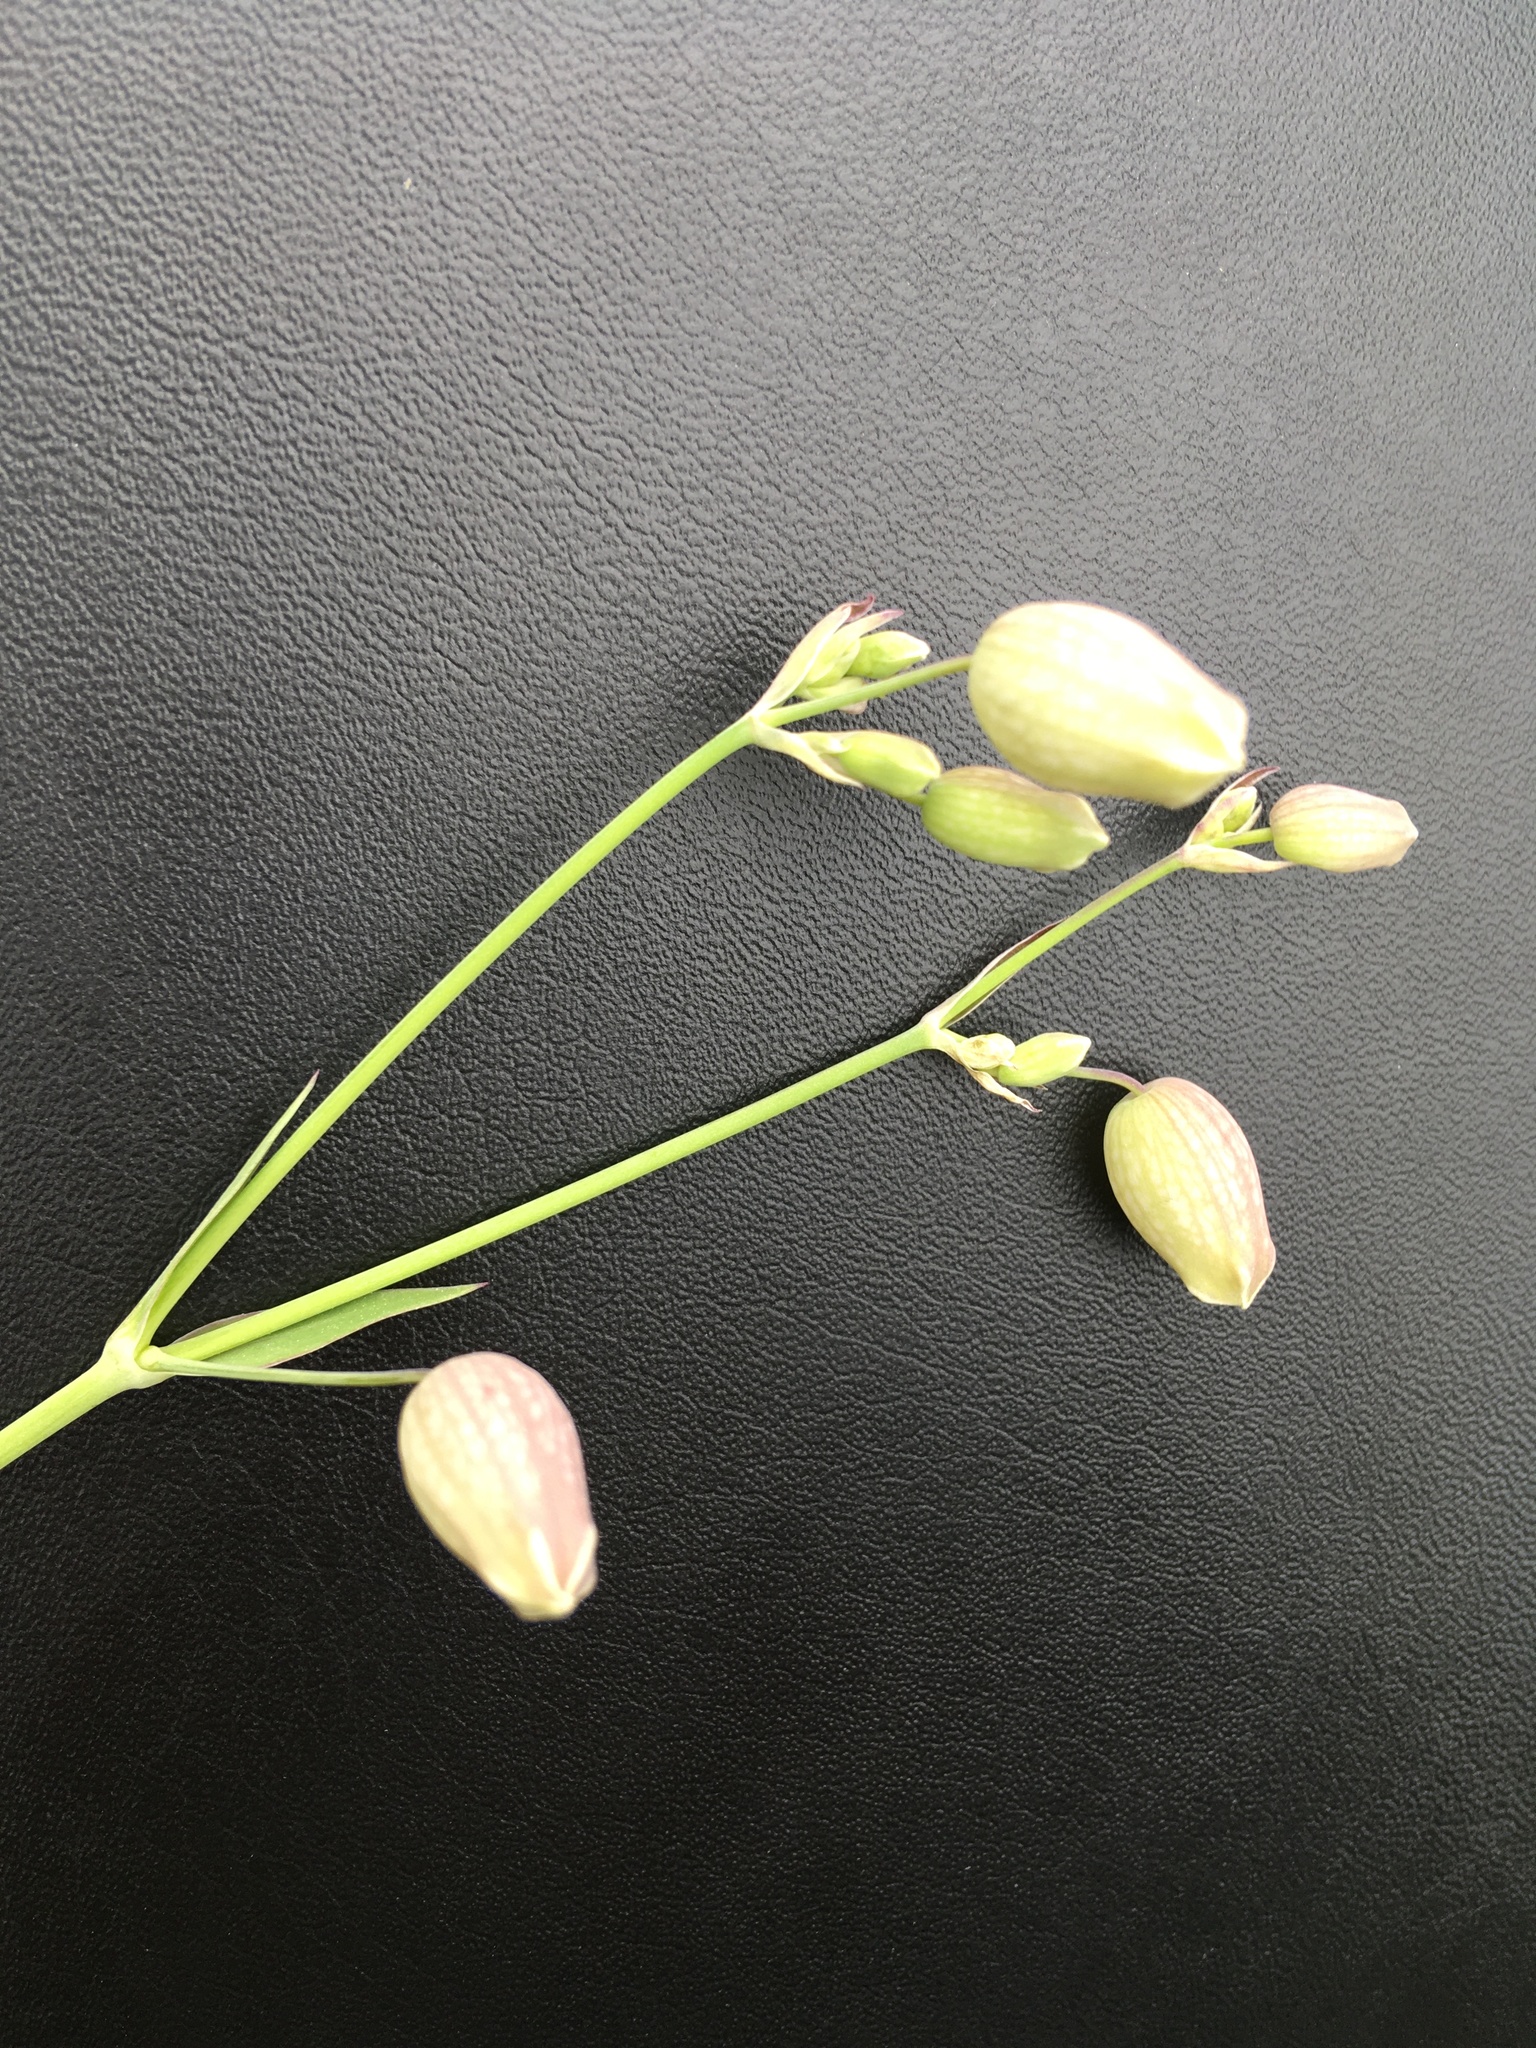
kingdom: Plantae
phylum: Tracheophyta
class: Magnoliopsida
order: Caryophyllales
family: Caryophyllaceae
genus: Silene
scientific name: Silene vulgaris
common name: Bladder campion
